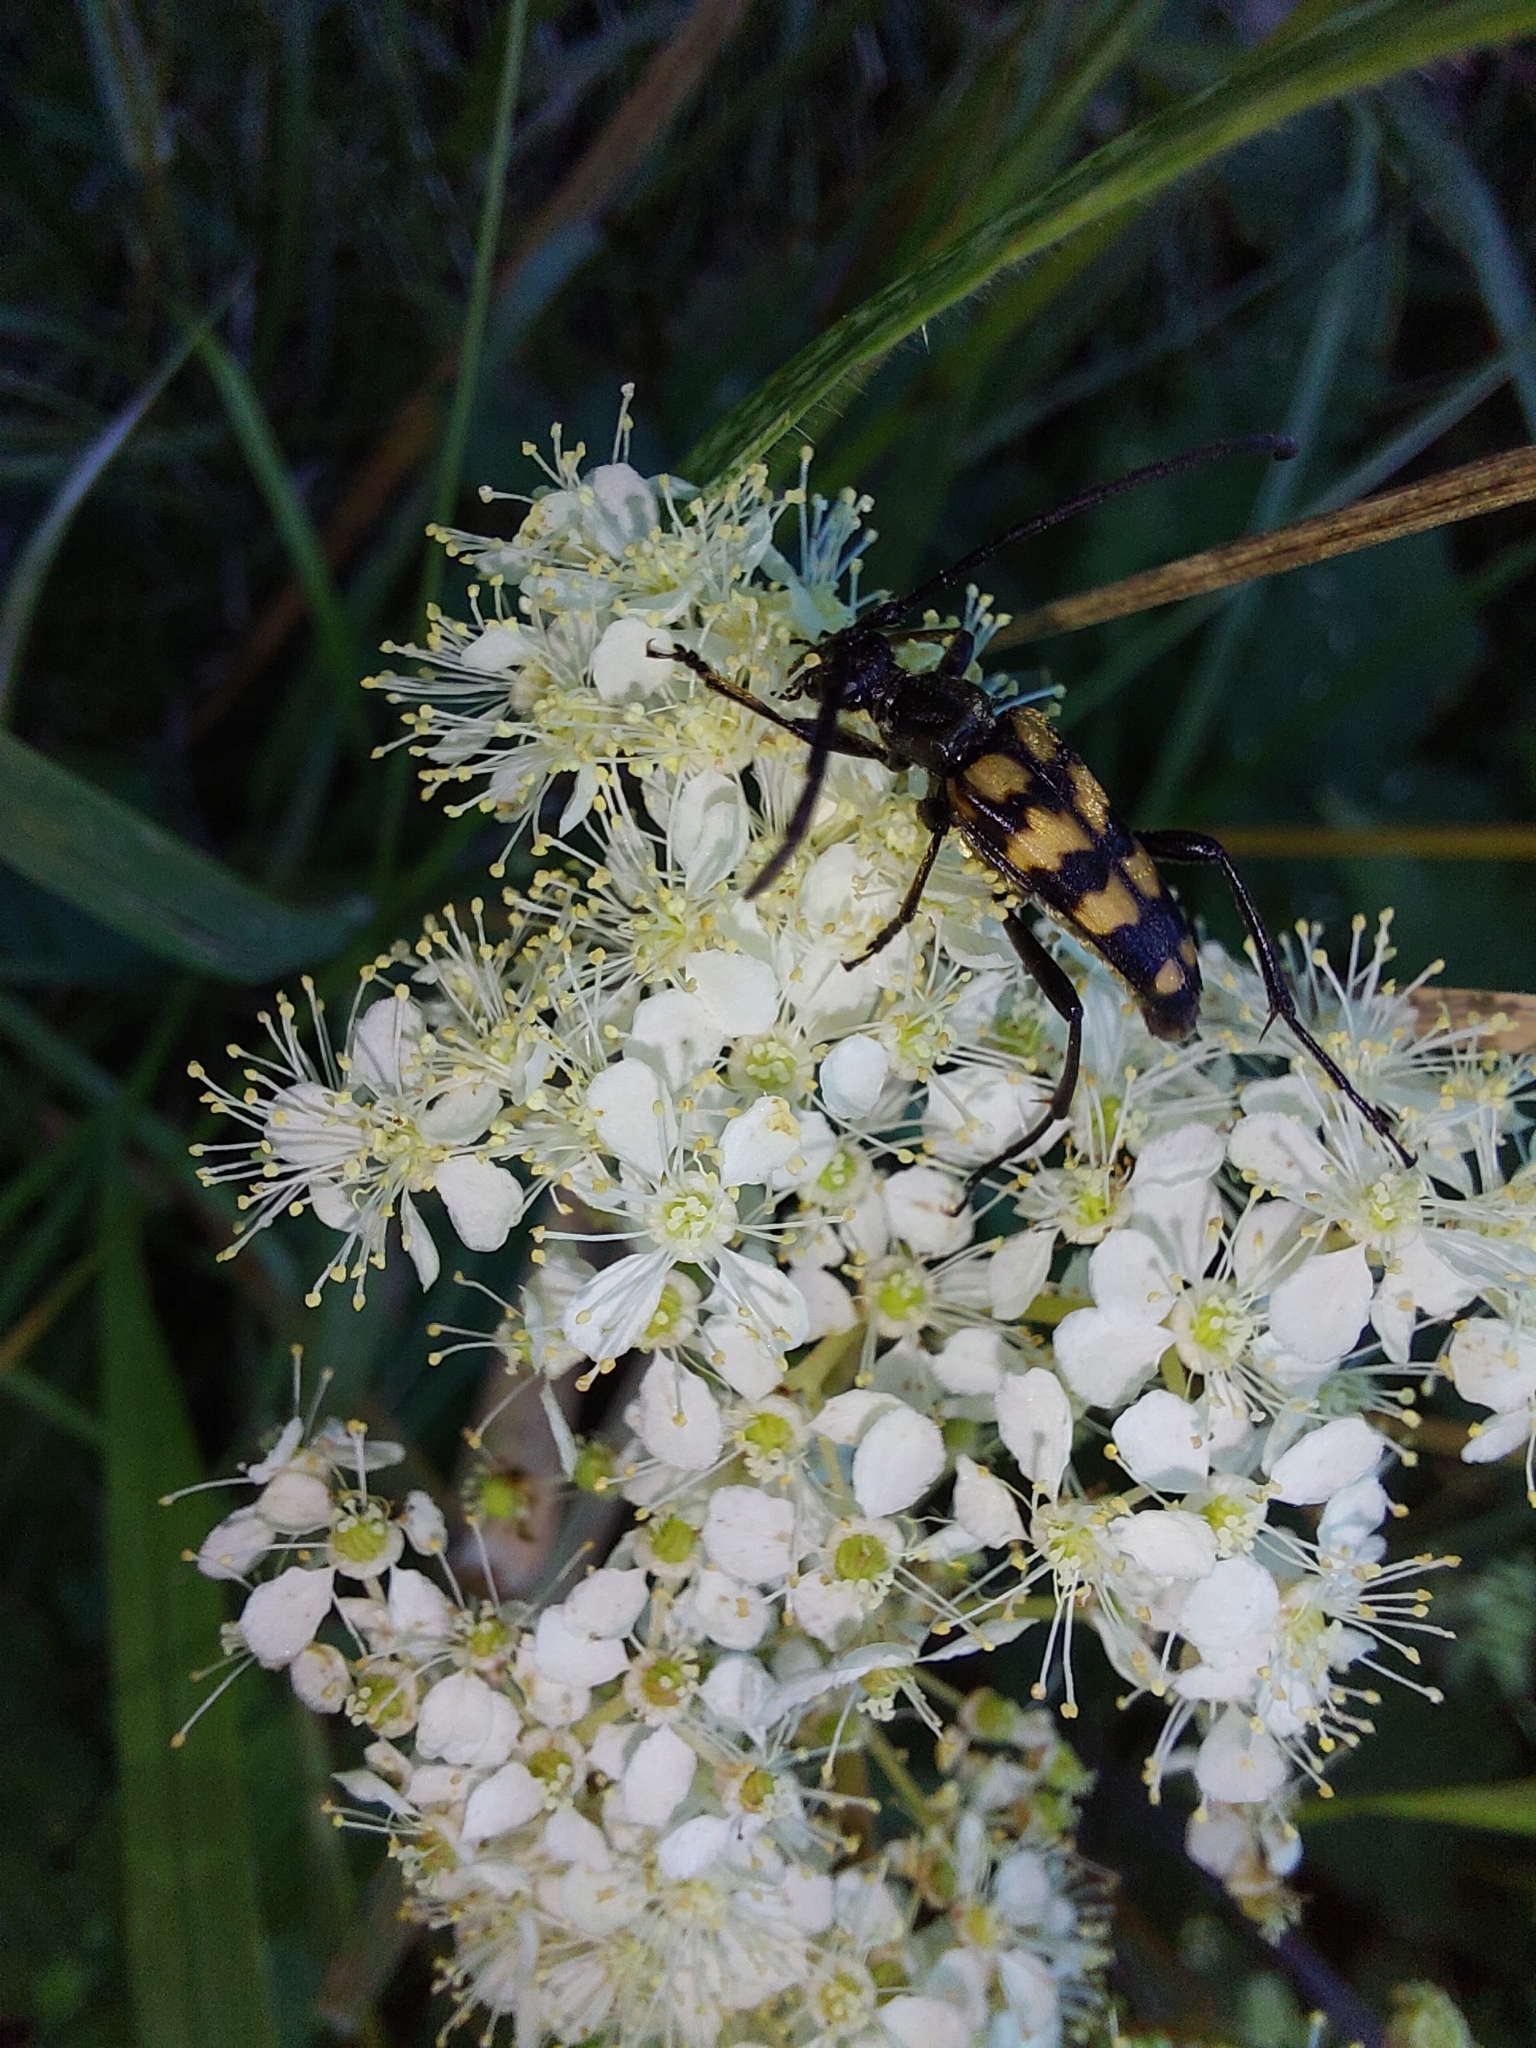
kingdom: Animalia
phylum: Arthropoda
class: Insecta
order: Coleoptera
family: Cerambycidae
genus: Leptura
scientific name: Leptura quadrifasciata
